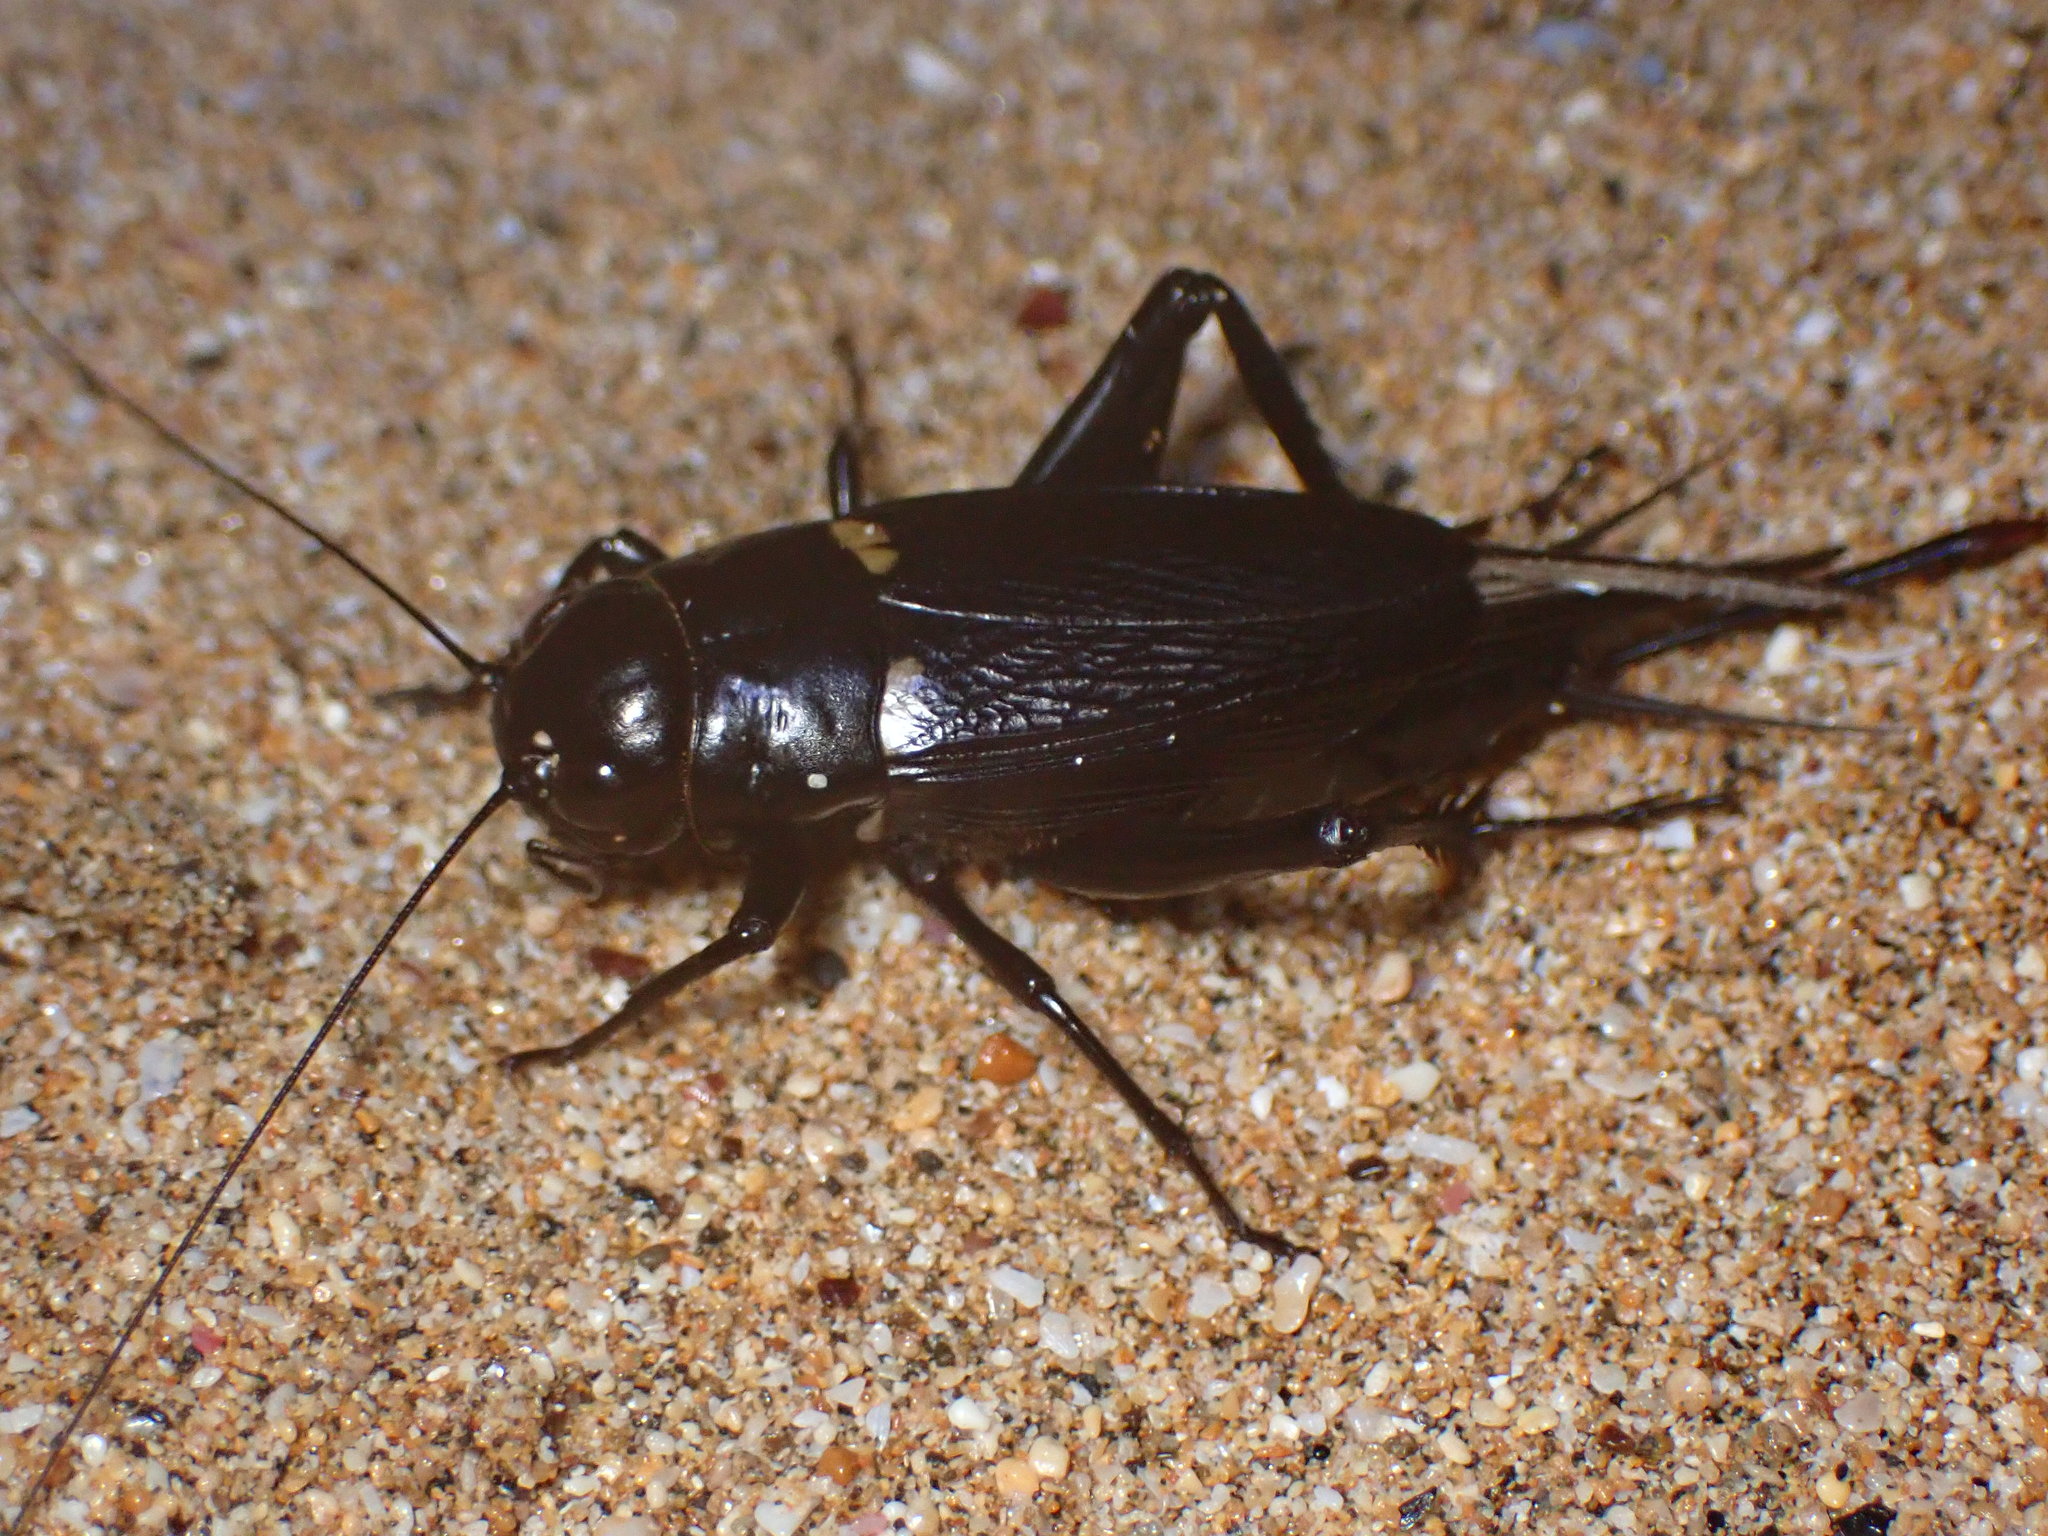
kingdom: Animalia
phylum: Arthropoda
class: Insecta
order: Orthoptera
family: Gryllidae
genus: Gryllus
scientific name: Gryllus bimaculatus
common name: Two-spotted cricket
